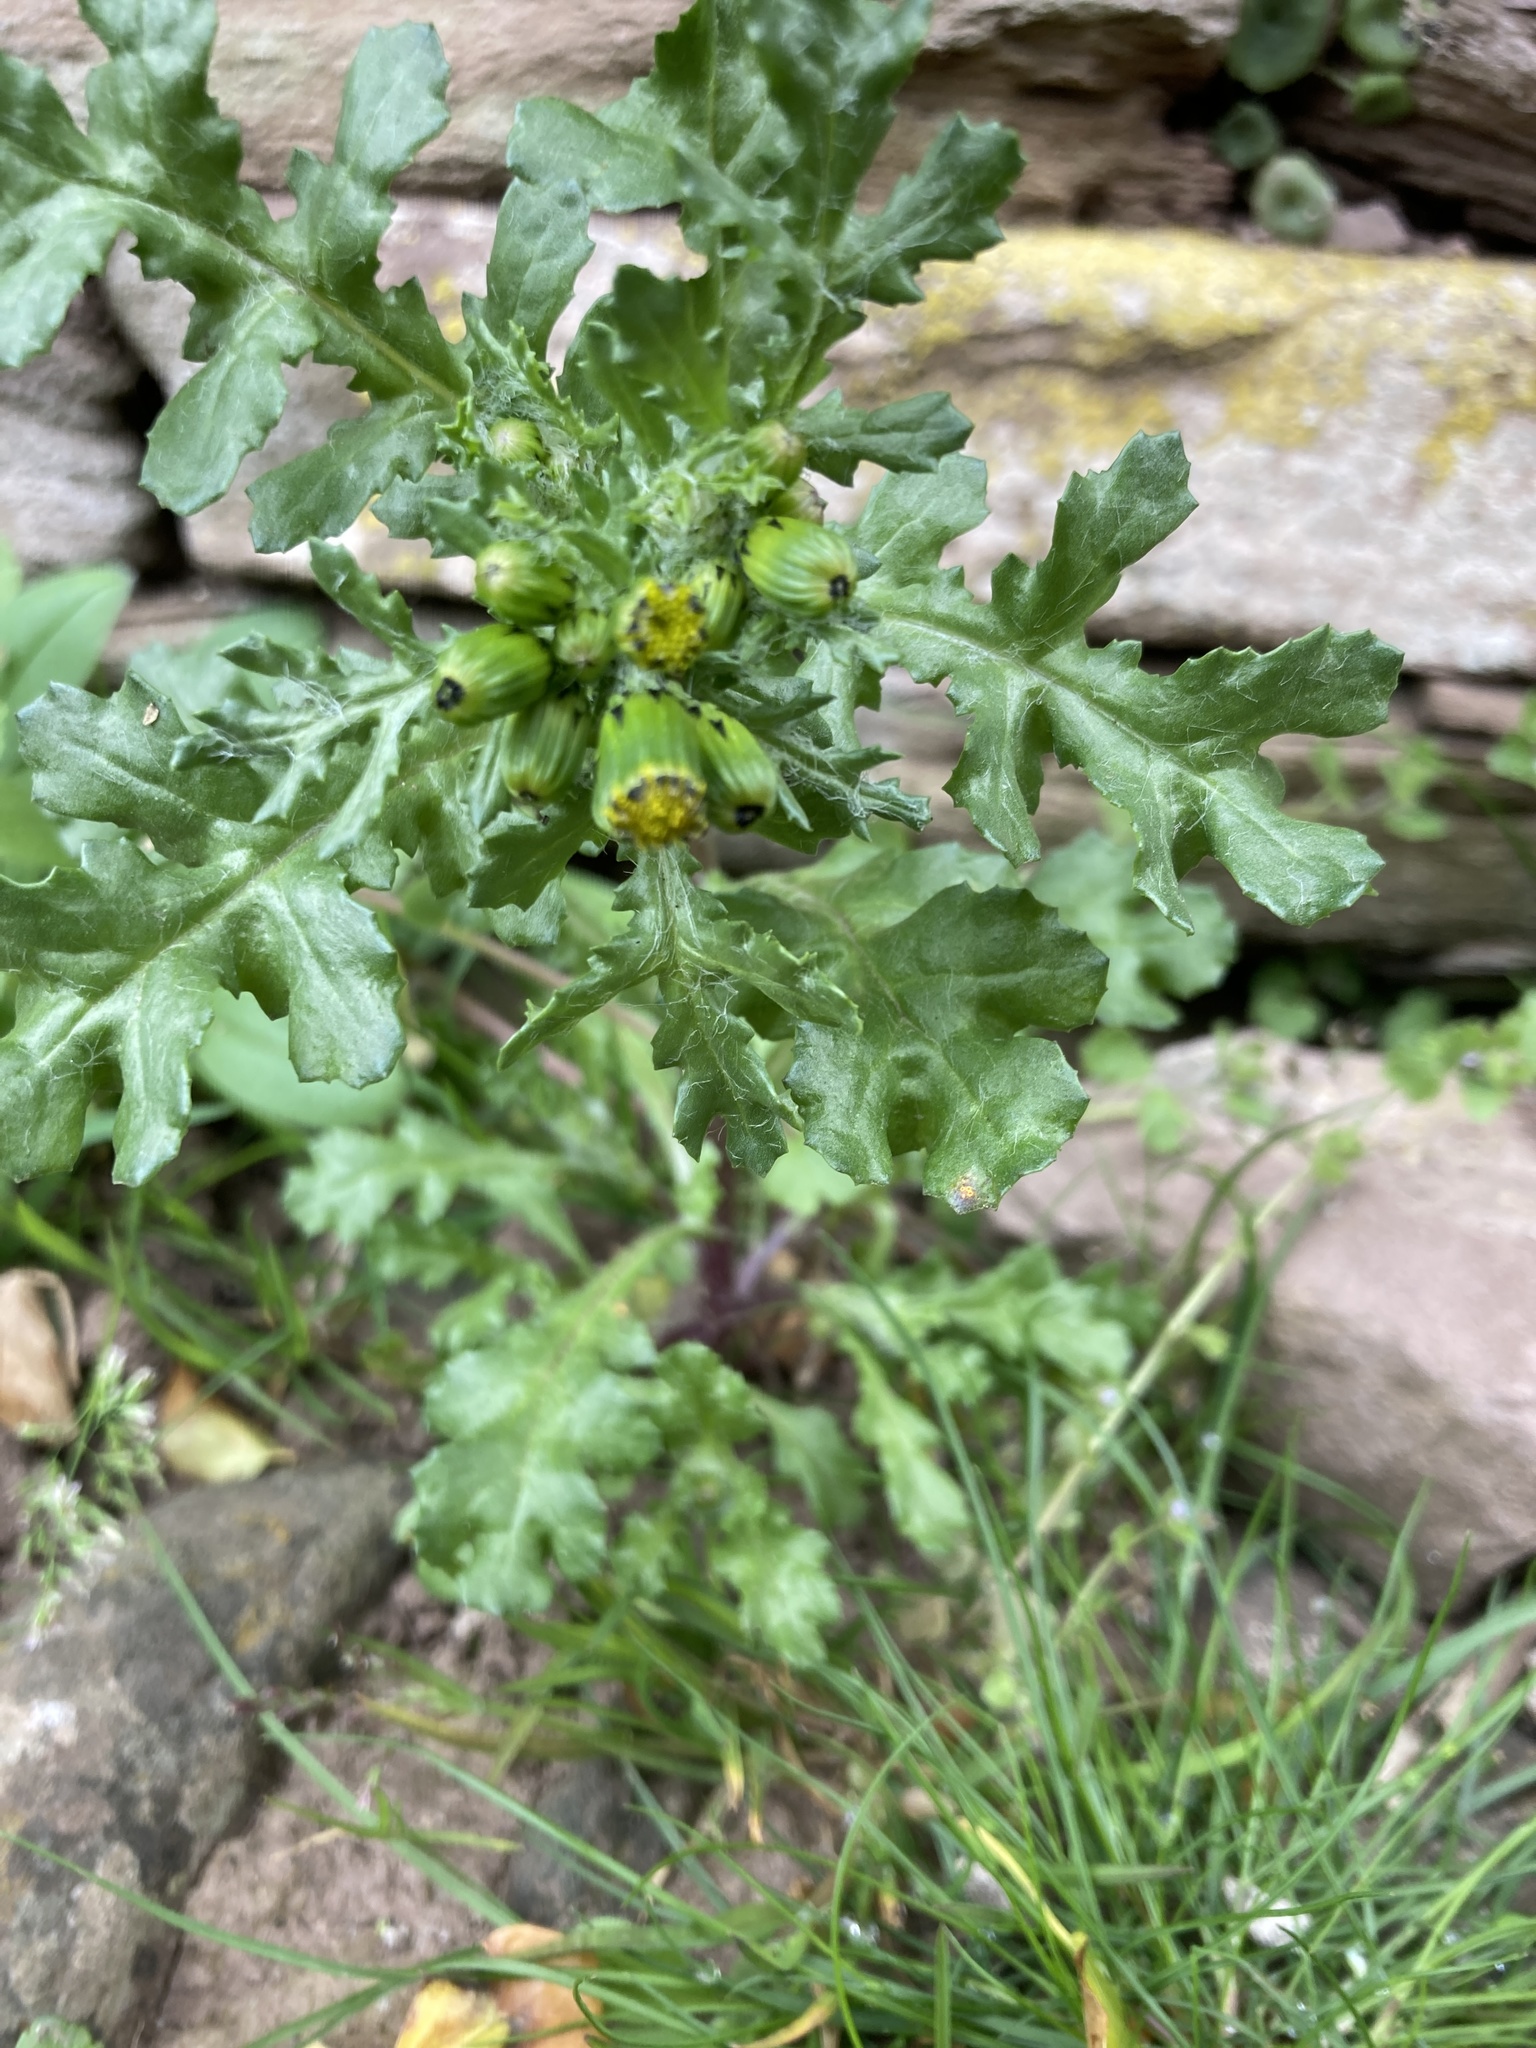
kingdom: Plantae
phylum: Tracheophyta
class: Magnoliopsida
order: Asterales
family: Asteraceae
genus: Senecio
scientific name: Senecio vulgaris
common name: Old-man-in-the-spring
